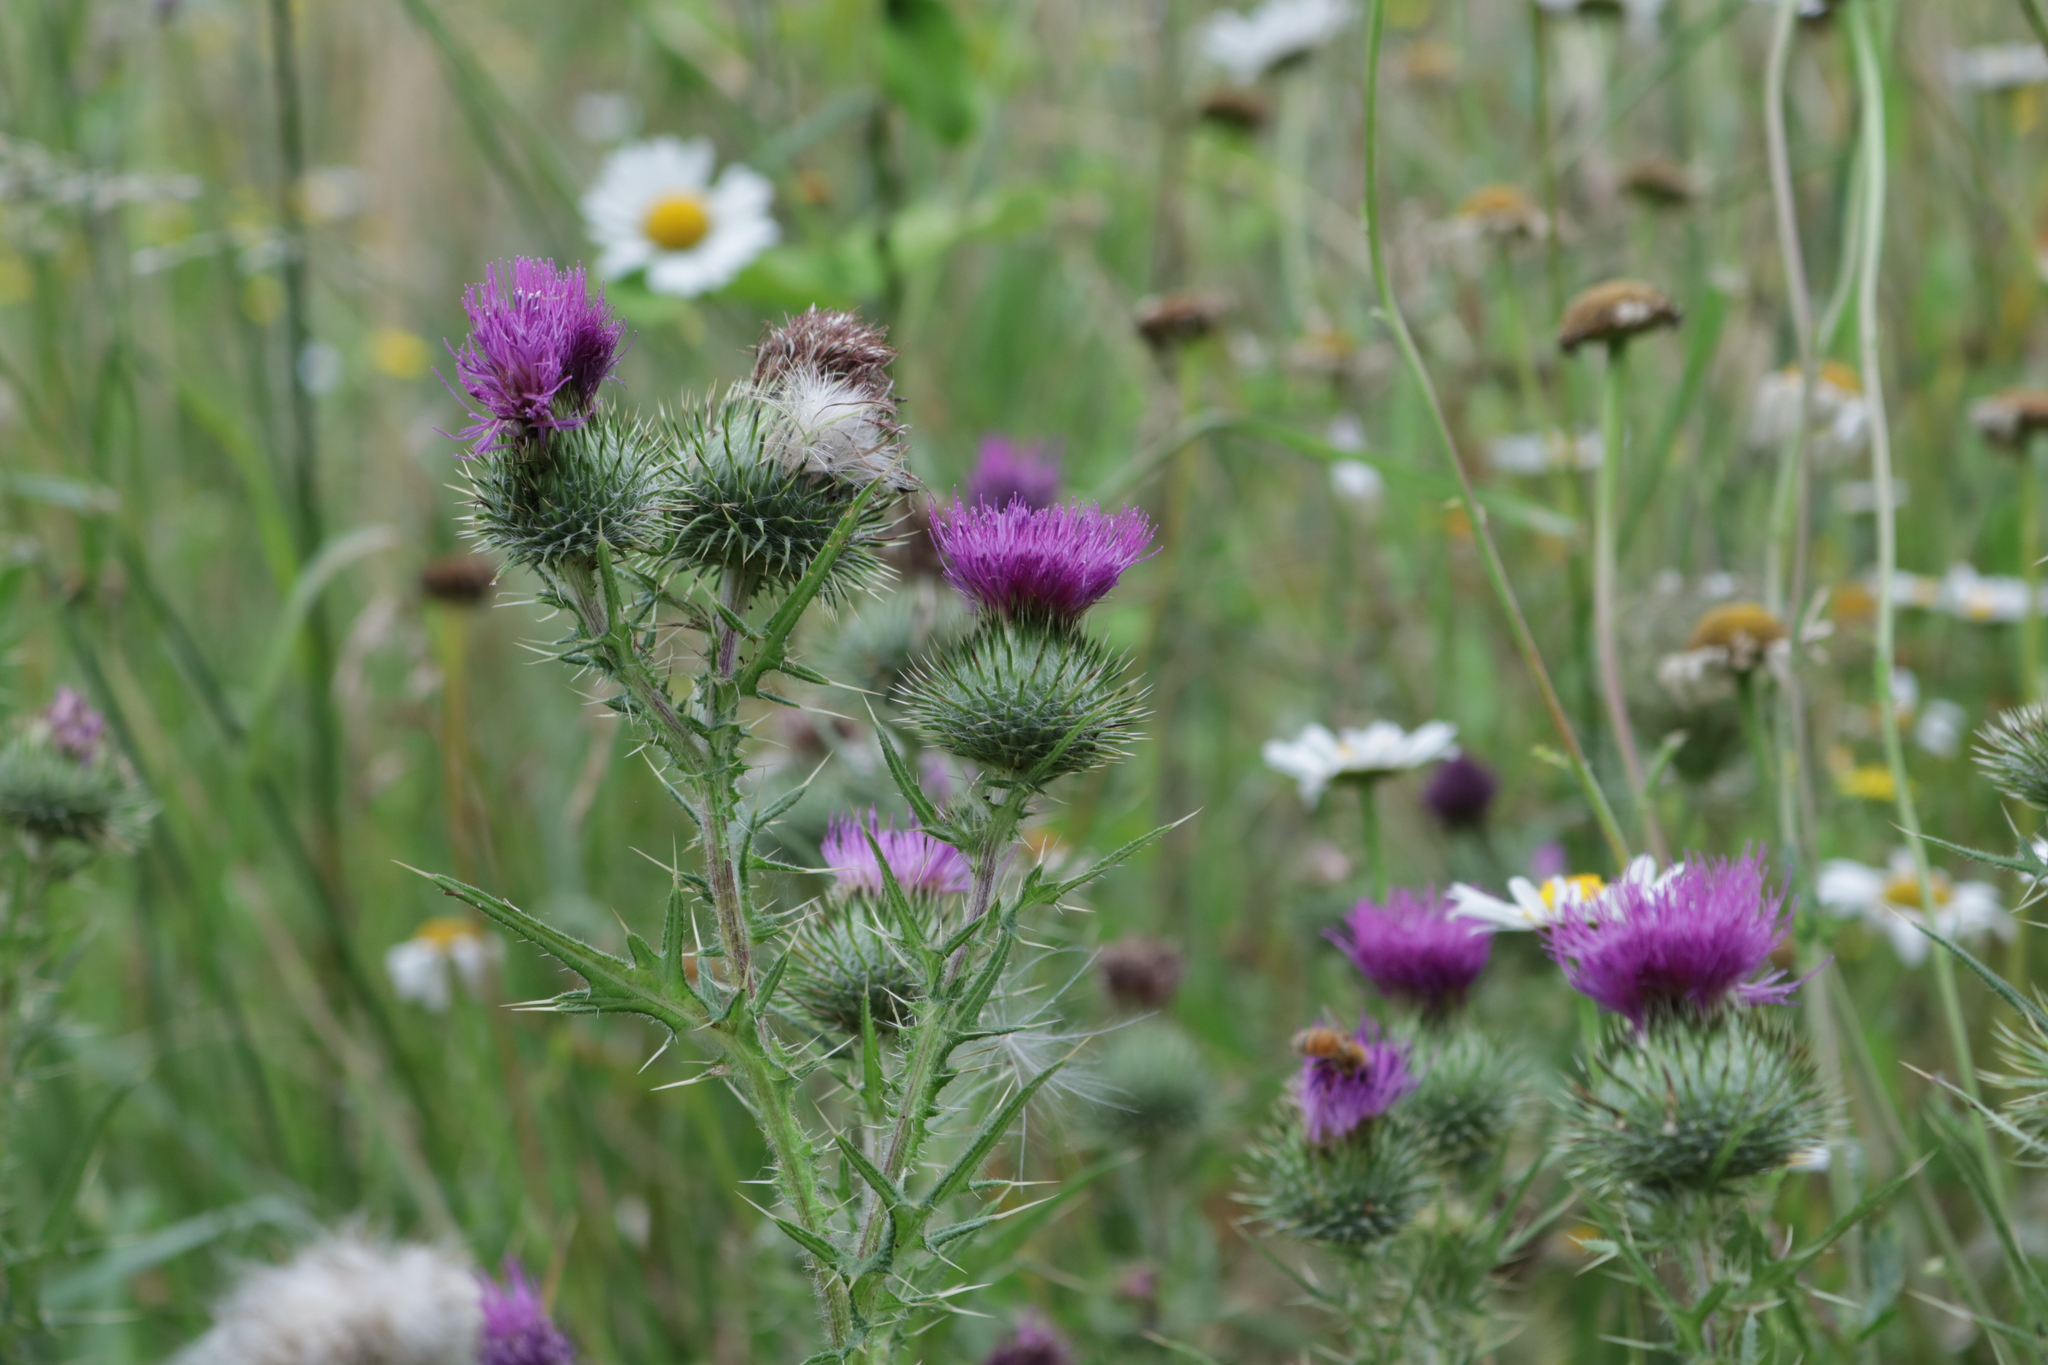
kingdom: Plantae
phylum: Tracheophyta
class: Magnoliopsida
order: Asterales
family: Asteraceae
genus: Cirsium
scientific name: Cirsium vulgare
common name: Bull thistle
